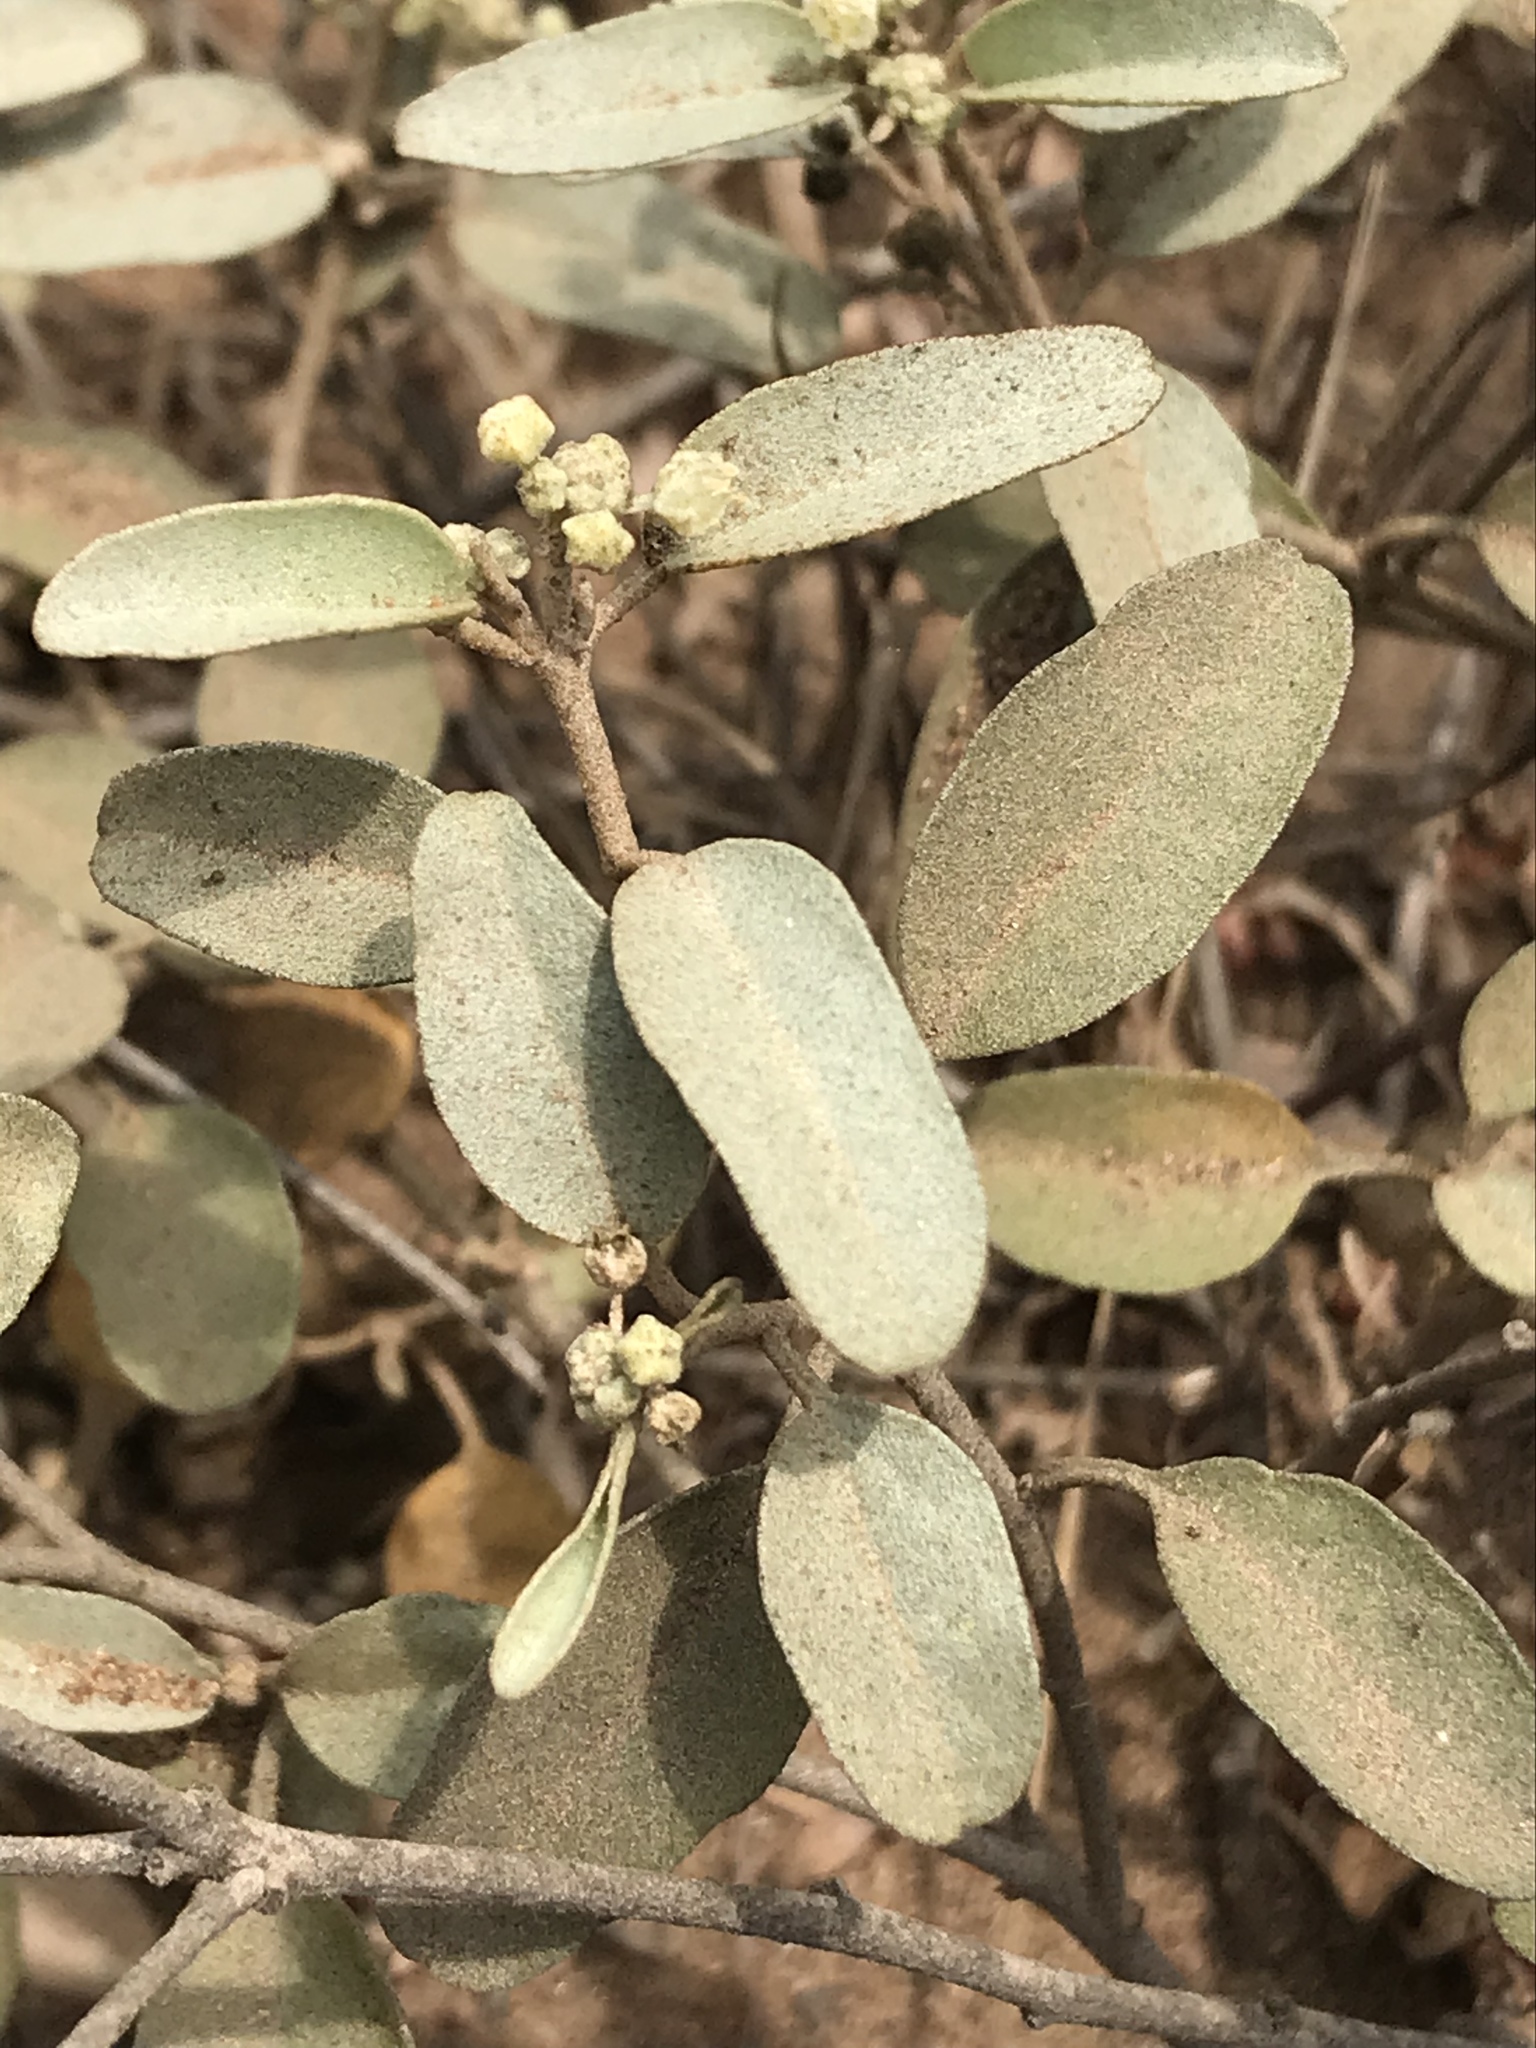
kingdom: Plantae
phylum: Tracheophyta
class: Magnoliopsida
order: Malpighiales
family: Euphorbiaceae
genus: Croton
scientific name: Croton californicus
